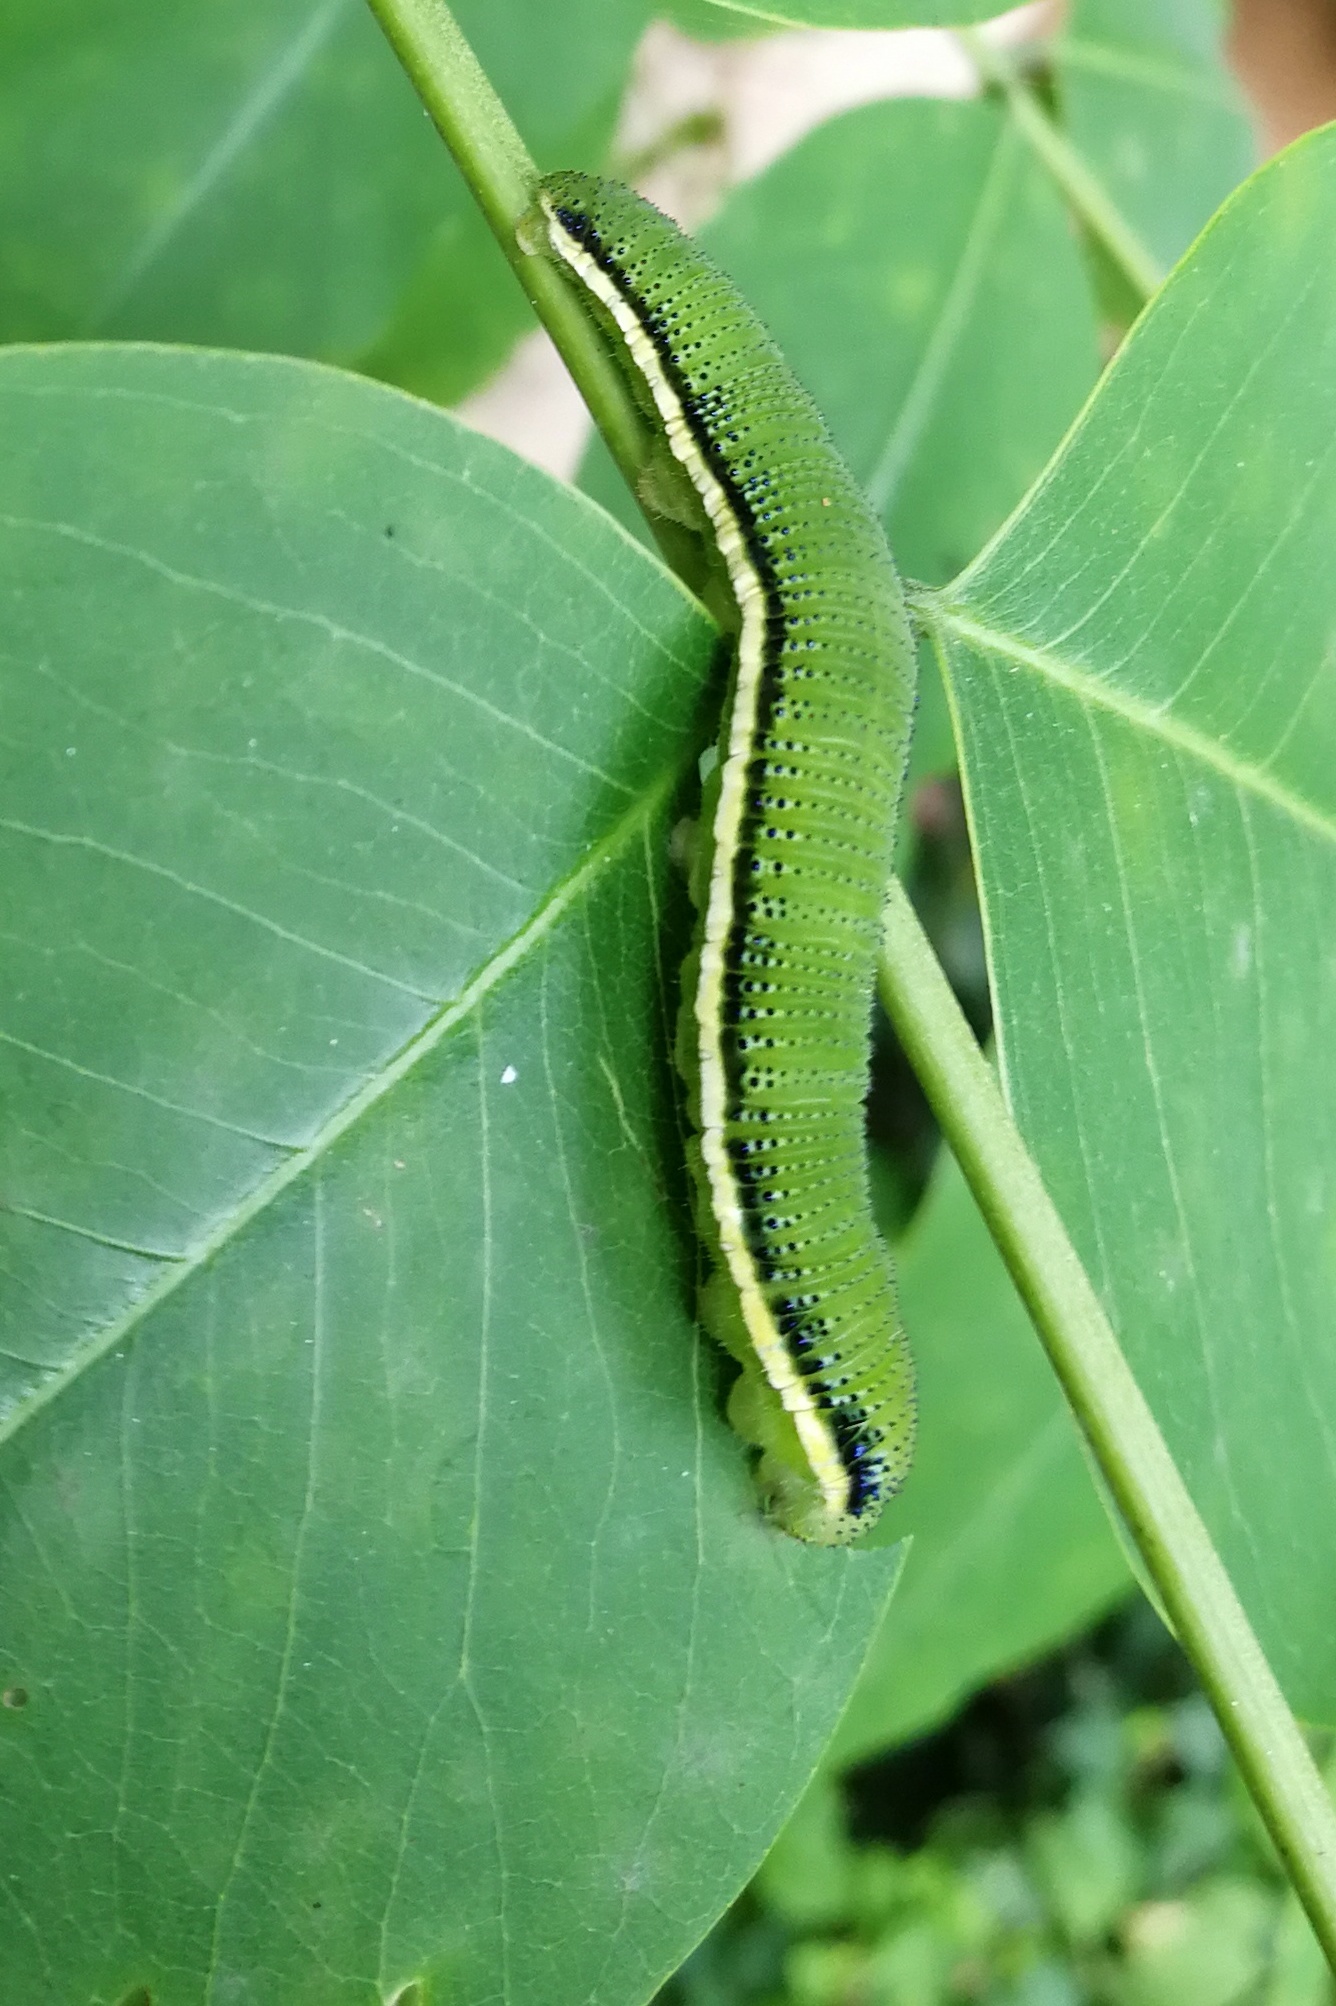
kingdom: Animalia
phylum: Arthropoda
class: Insecta
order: Lepidoptera
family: Pieridae
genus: Catopsilia
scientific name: Catopsilia pomona
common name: Common emigrant
